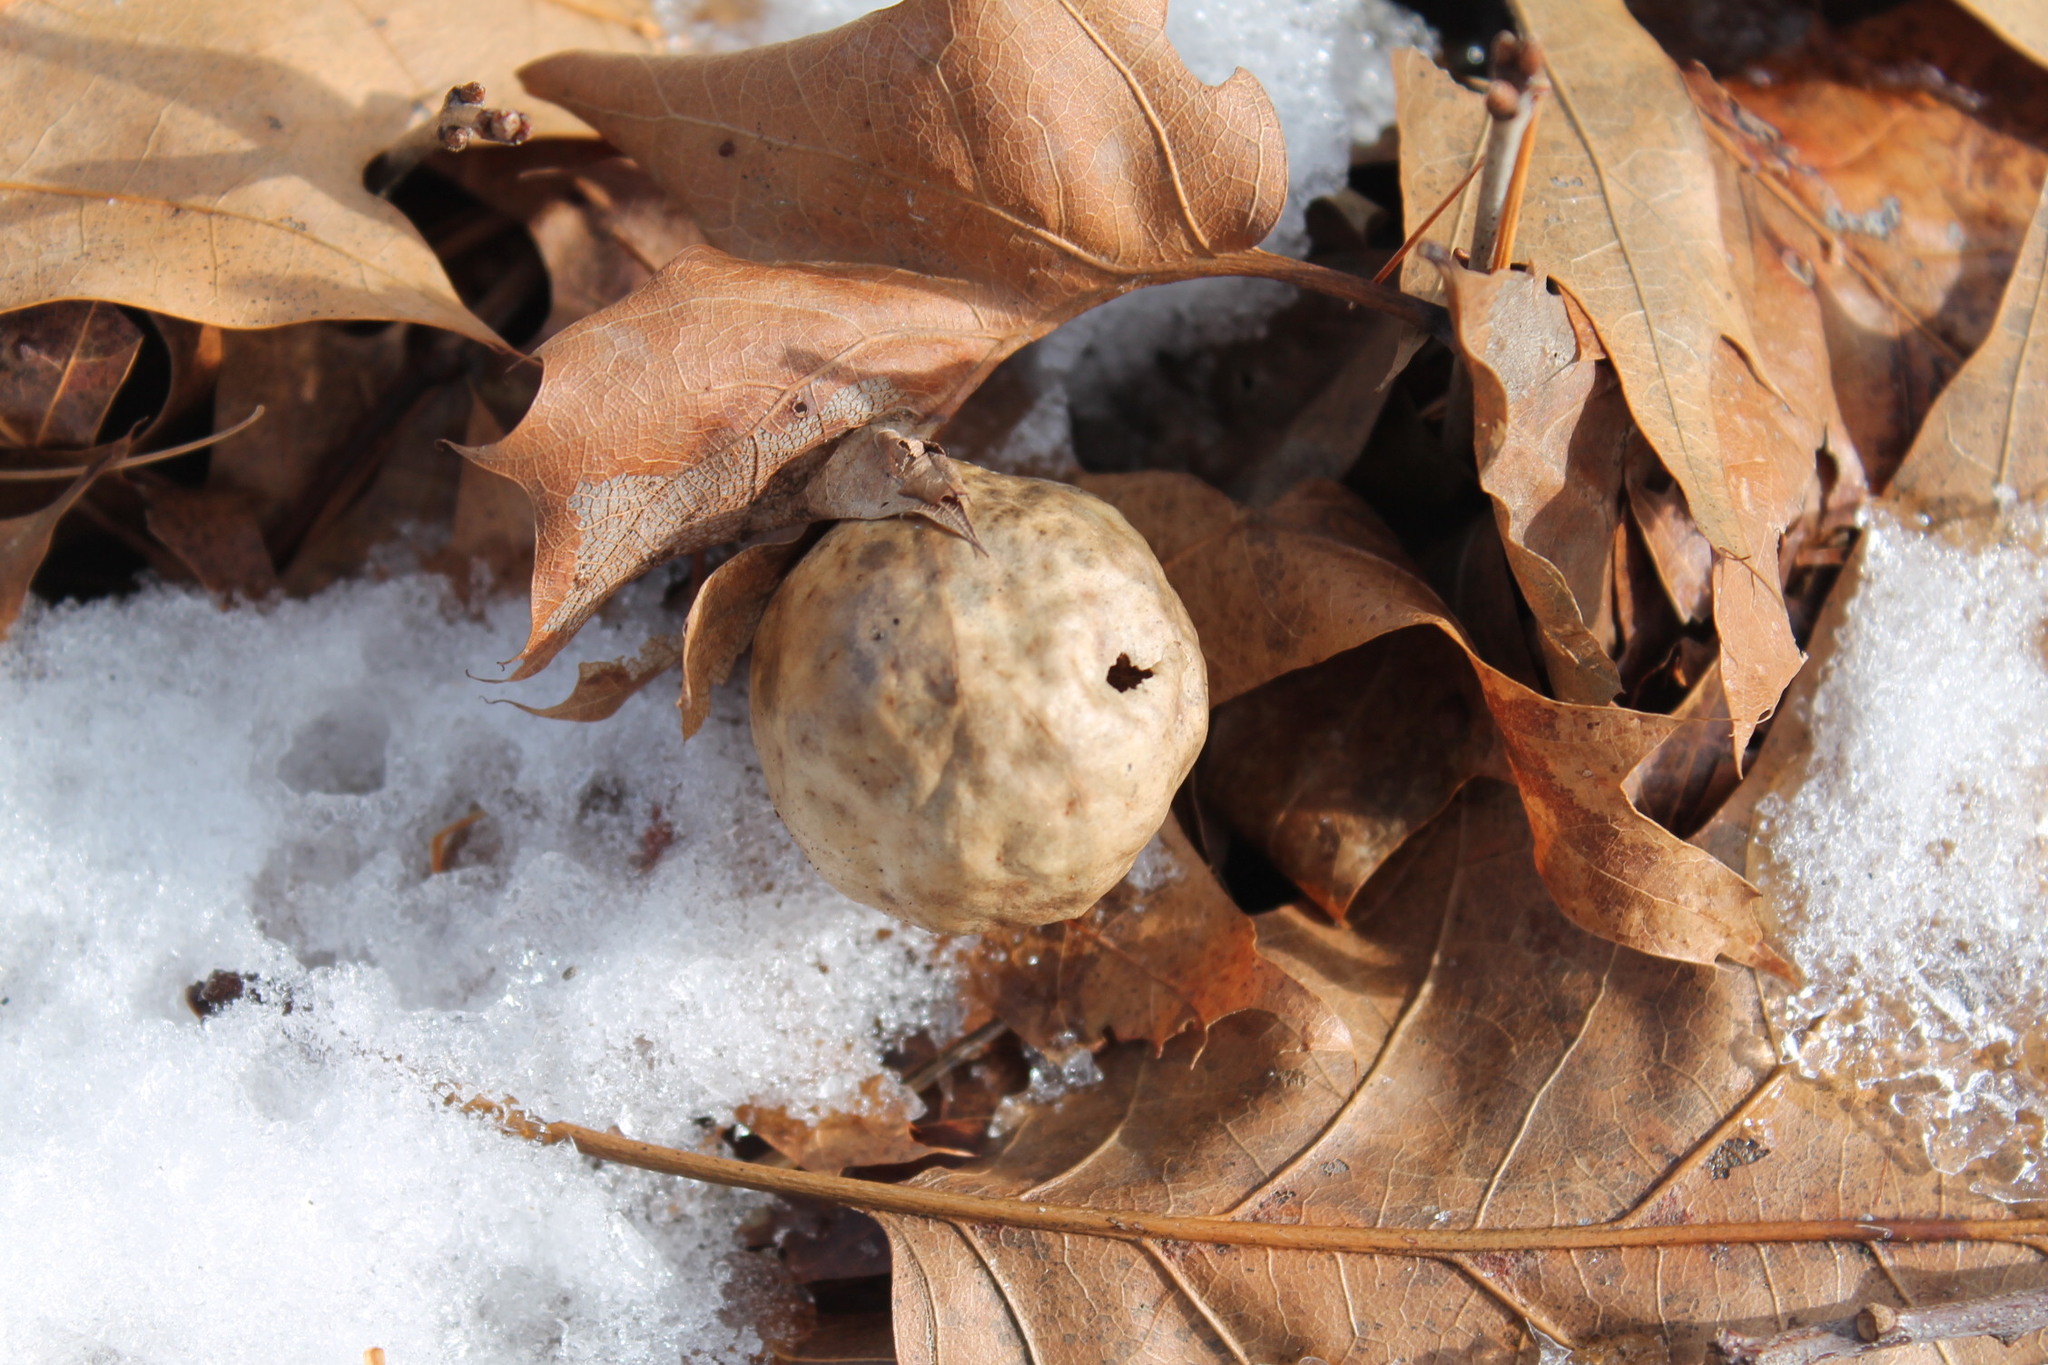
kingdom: Animalia
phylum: Arthropoda
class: Insecta
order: Hymenoptera
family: Cynipidae
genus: Amphibolips
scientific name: Amphibolips
